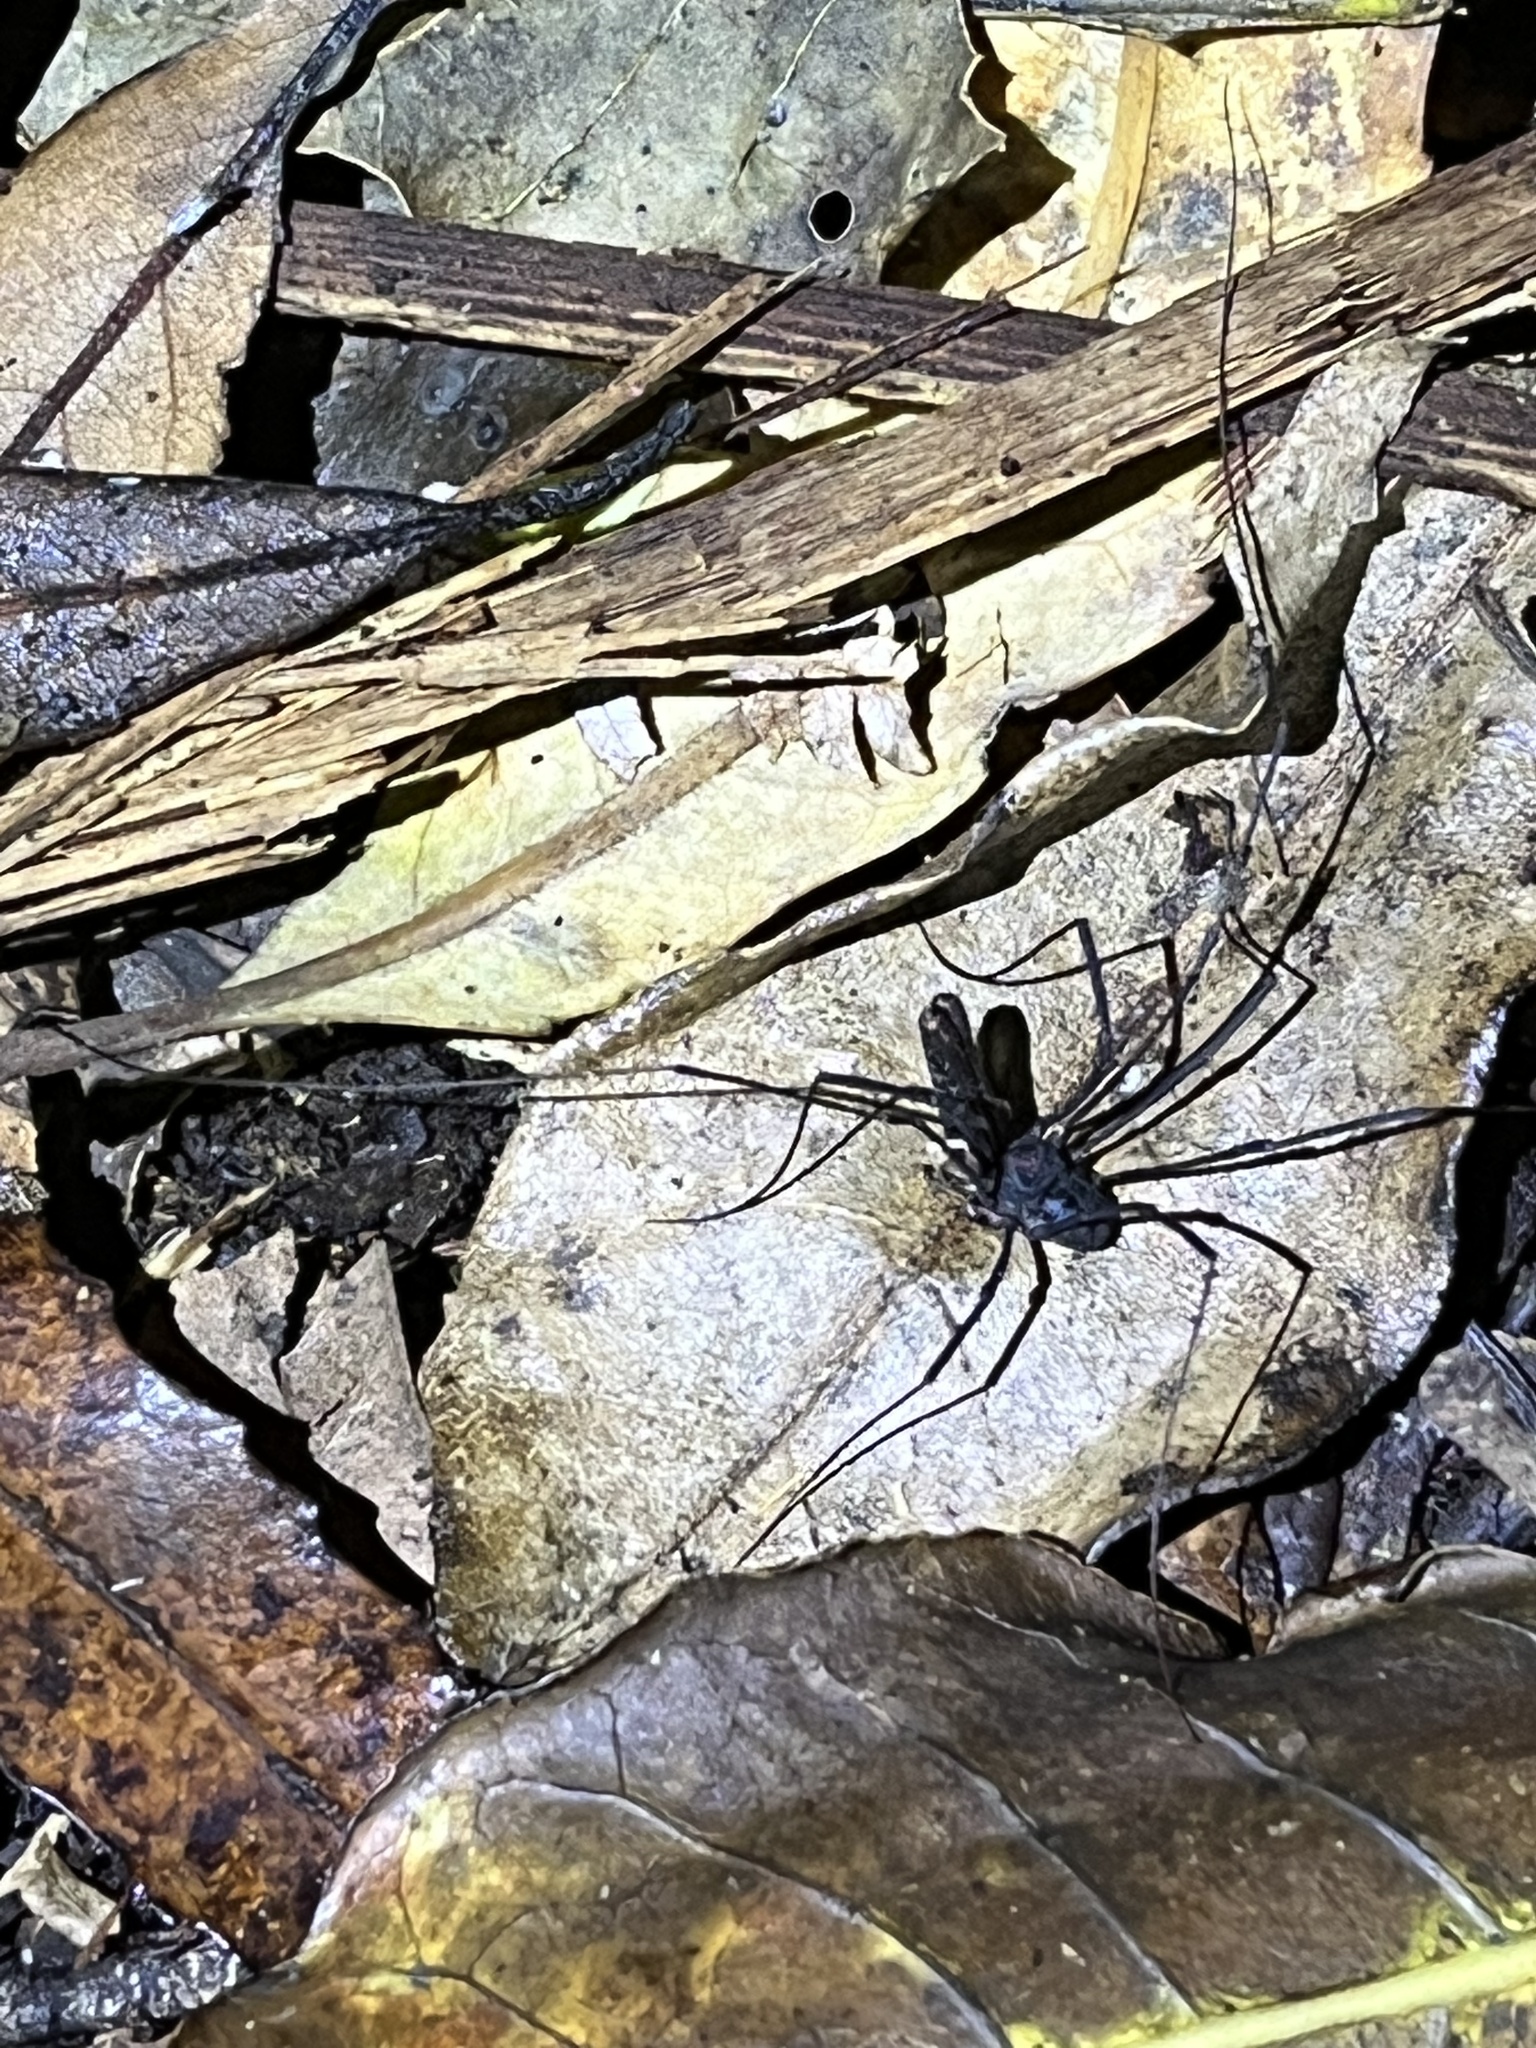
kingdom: Animalia
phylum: Arthropoda
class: Arachnida
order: Opiliones
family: Neopilionidae
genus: Forsteropsalis
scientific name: Forsteropsalis inconstans
